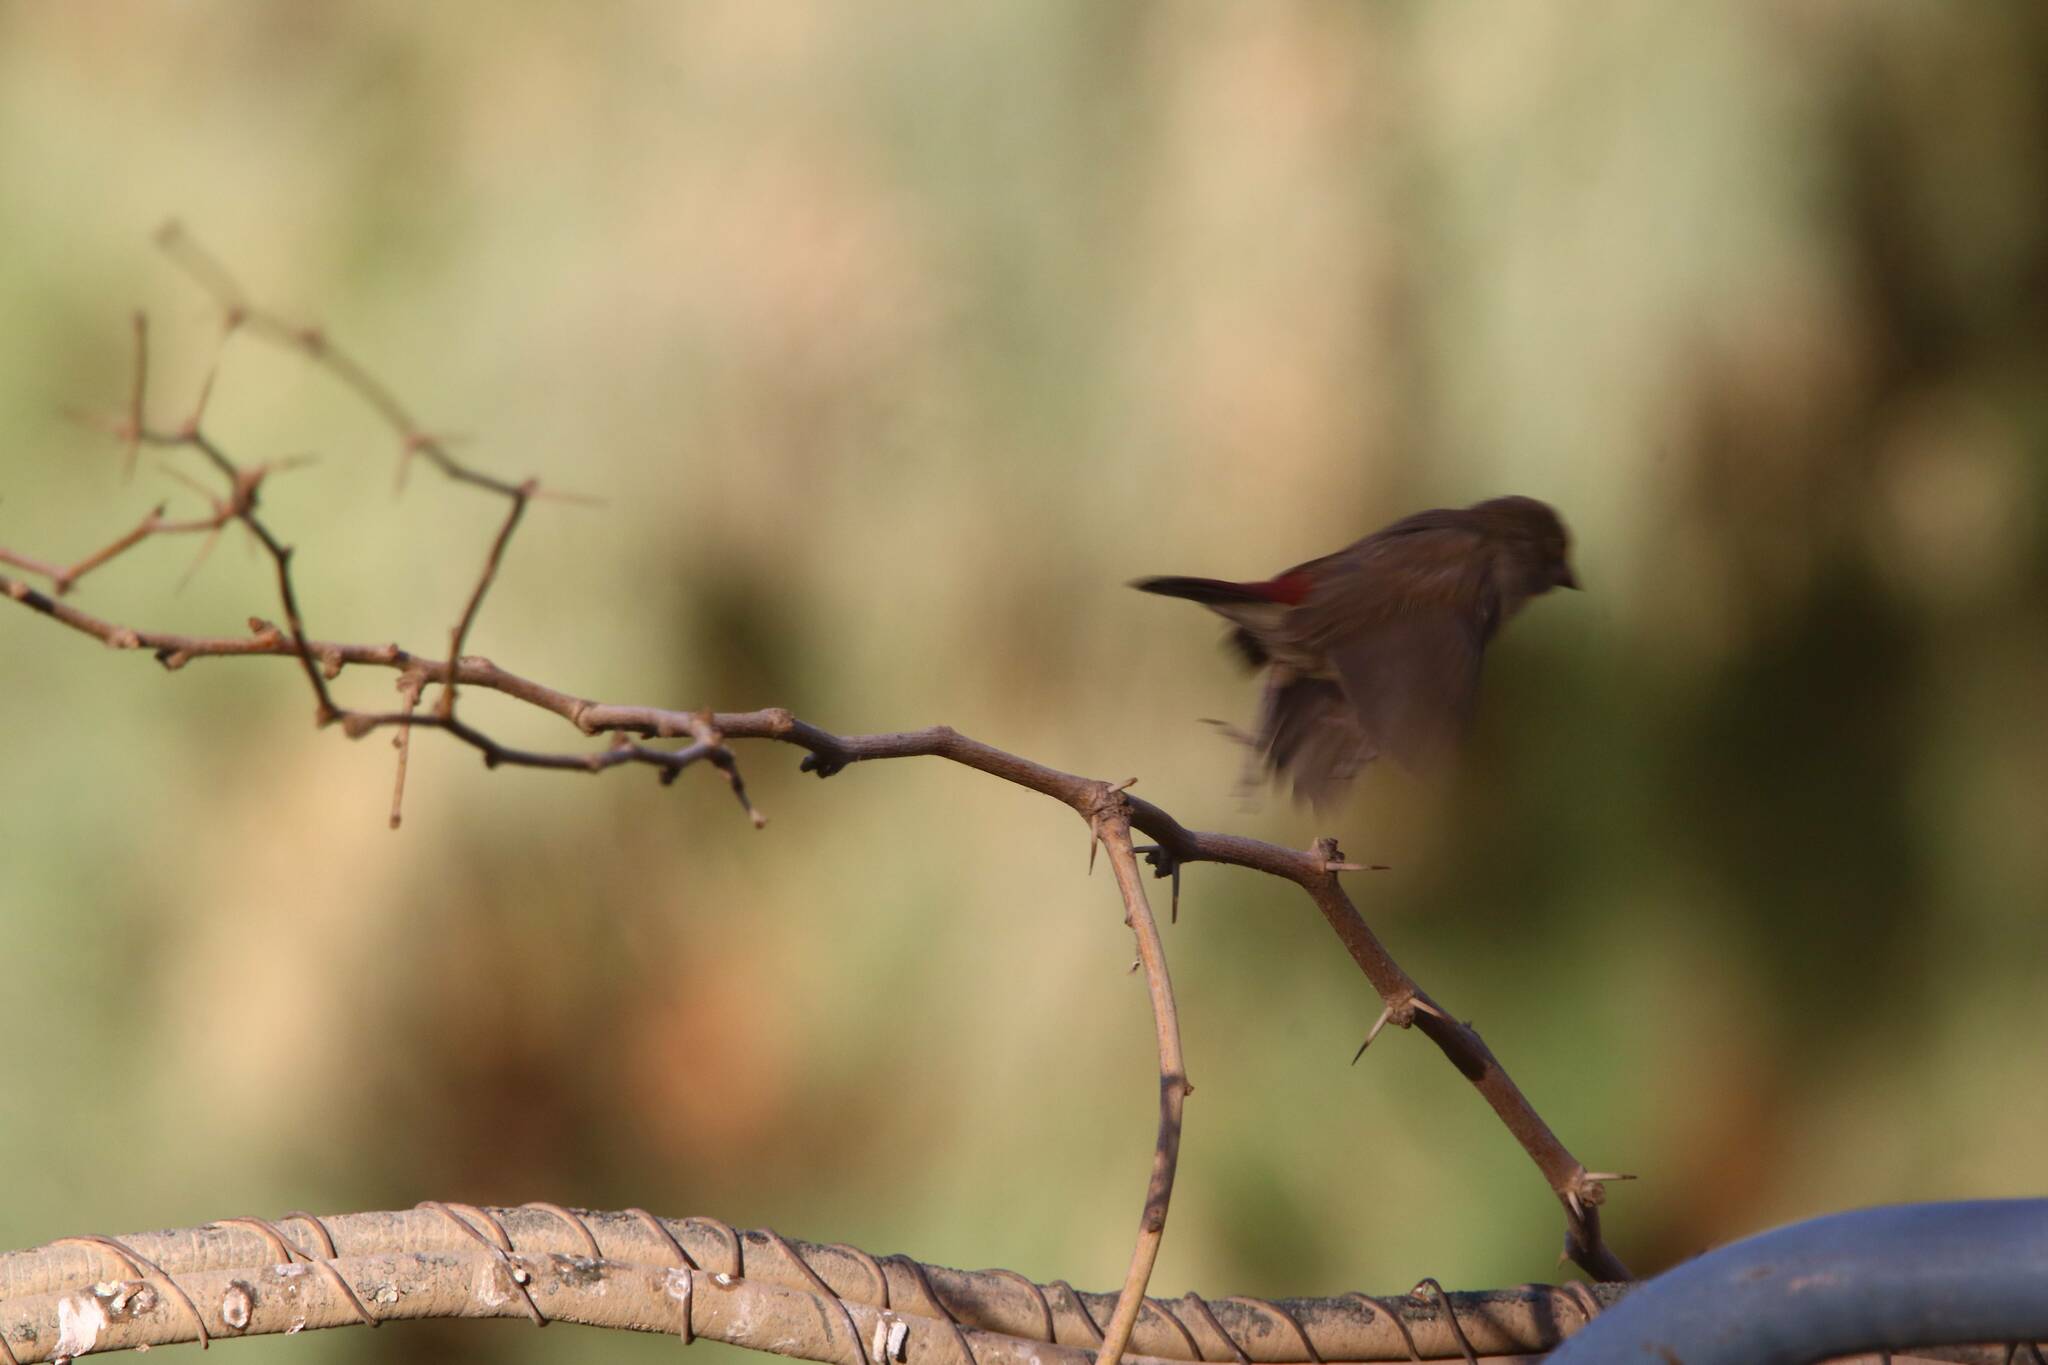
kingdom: Animalia
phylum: Chordata
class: Aves
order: Passeriformes
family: Estrildidae
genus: Lagonosticta
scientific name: Lagonosticta senegala
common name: Red-billed firefinch
